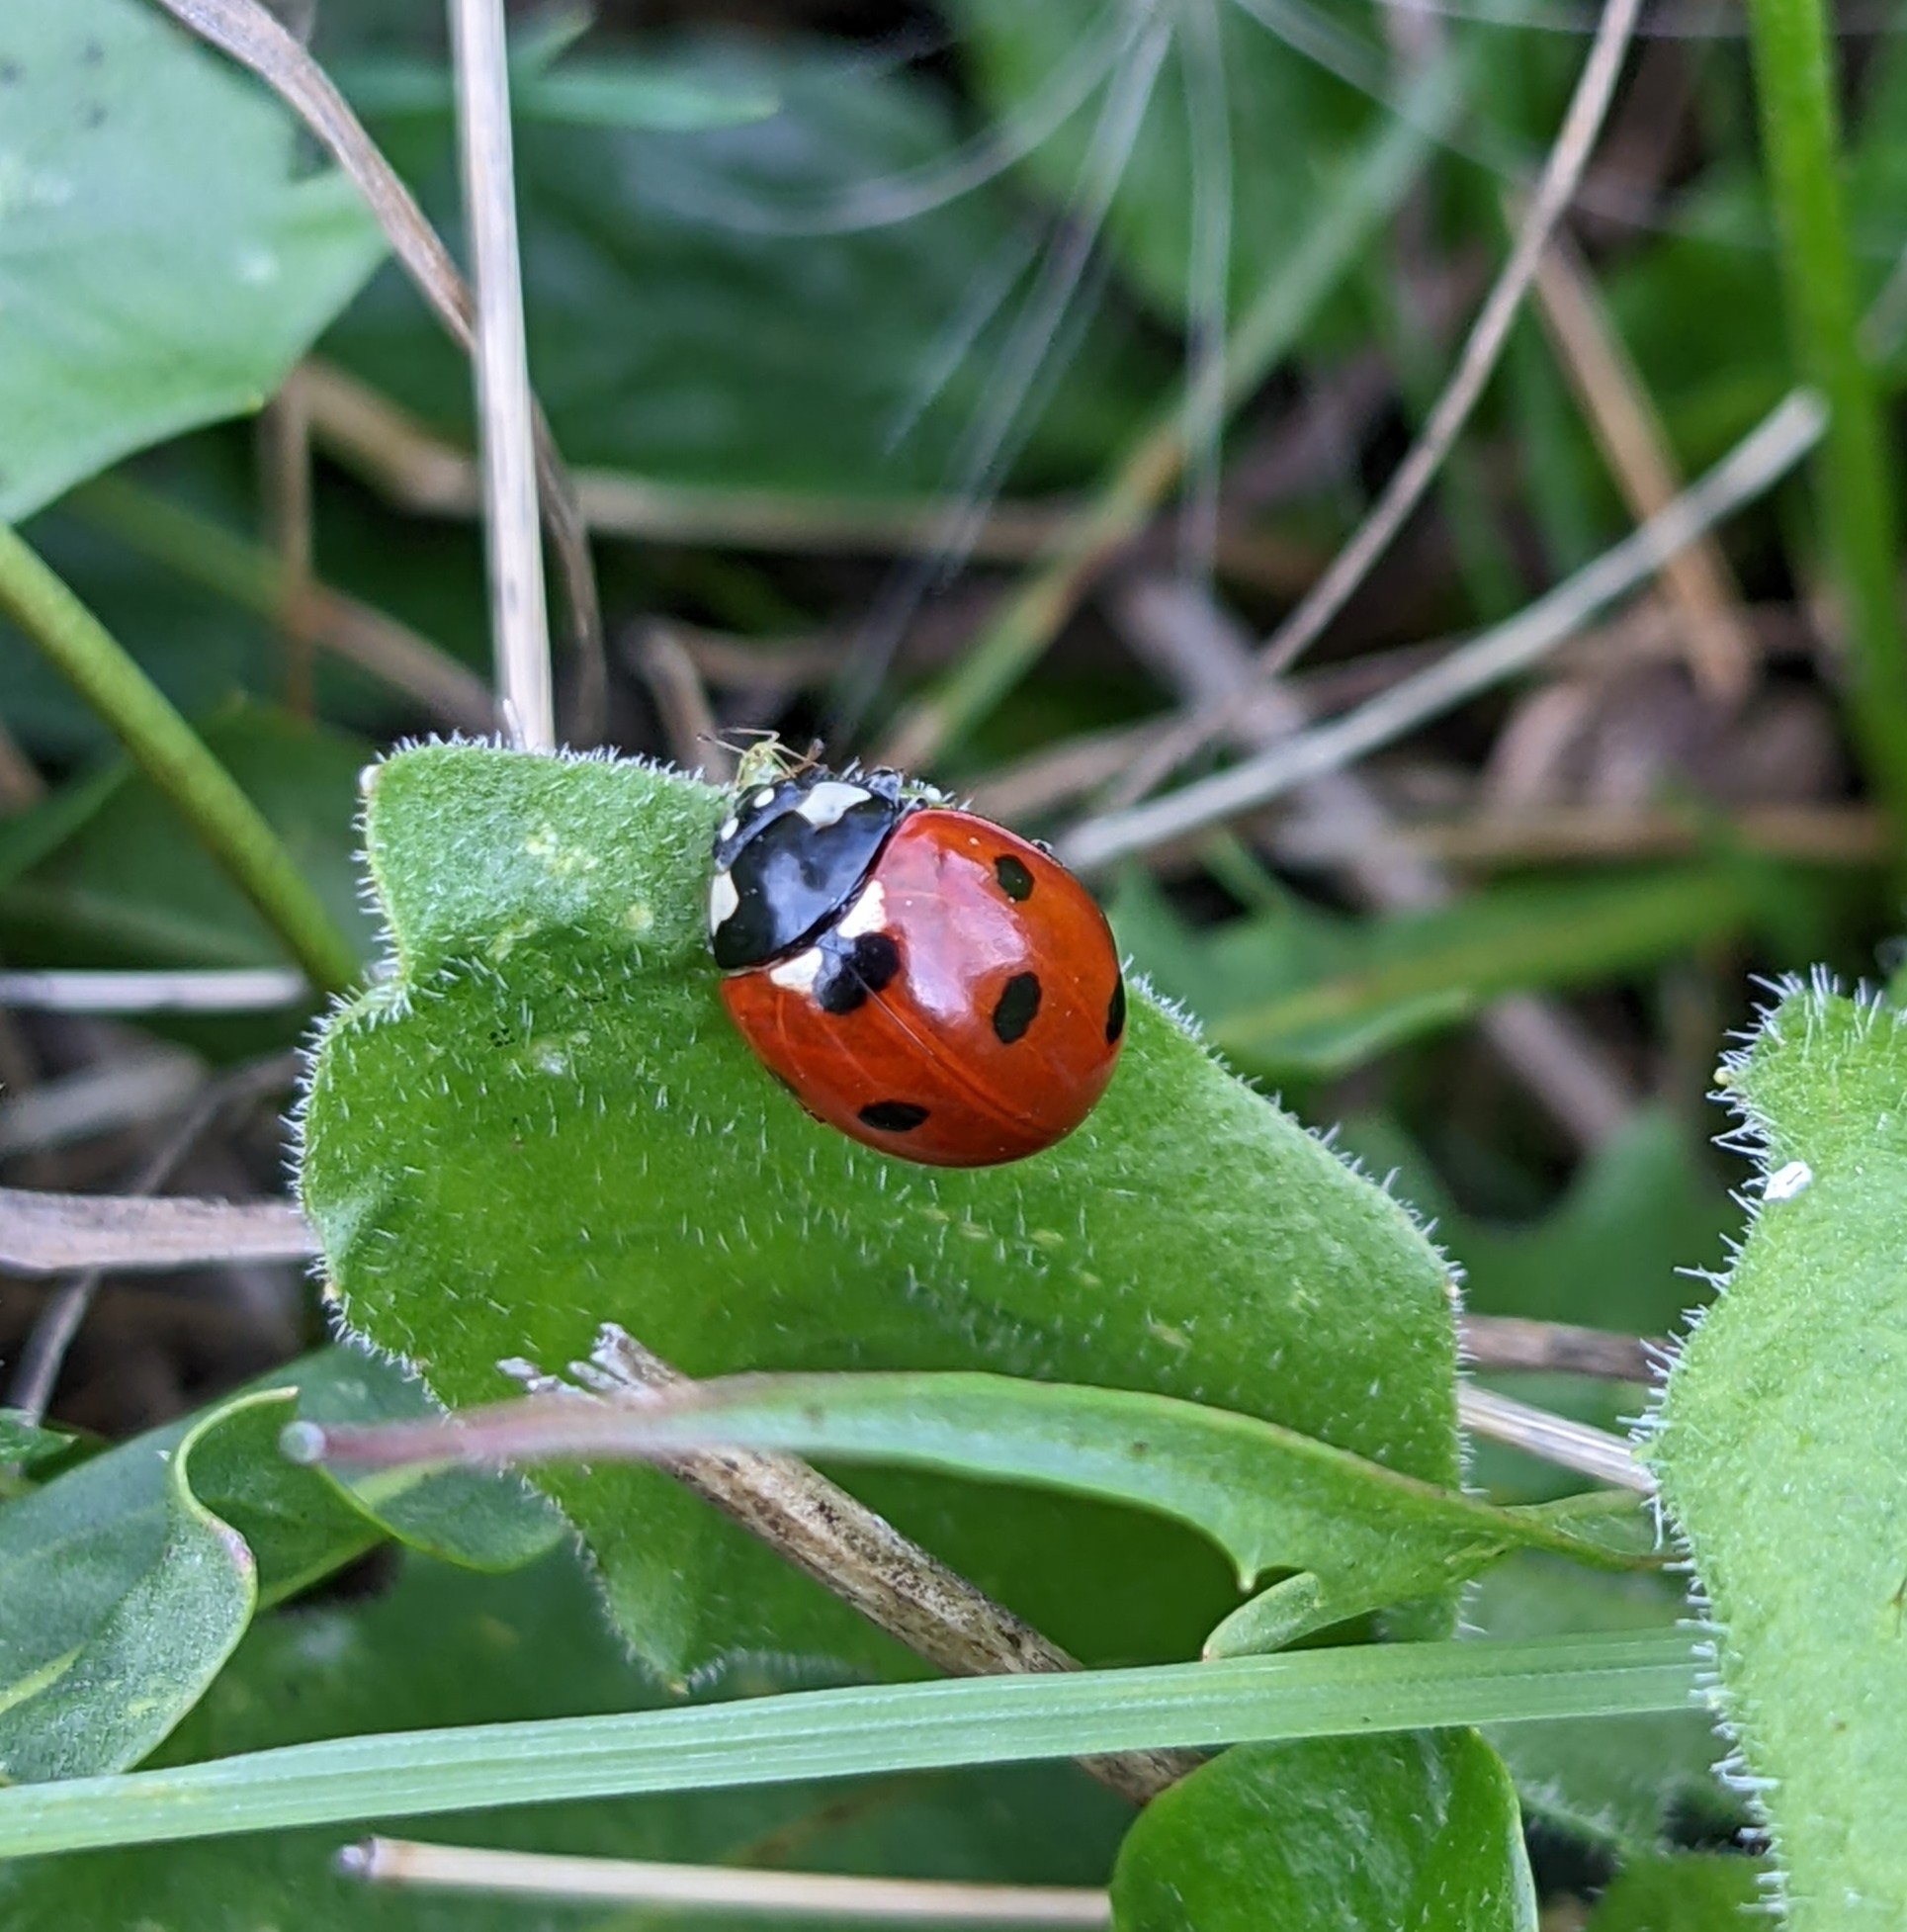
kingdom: Animalia
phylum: Arthropoda
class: Insecta
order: Coleoptera
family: Coccinellidae
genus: Coccinella
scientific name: Coccinella septempunctata
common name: Sevenspotted lady beetle
